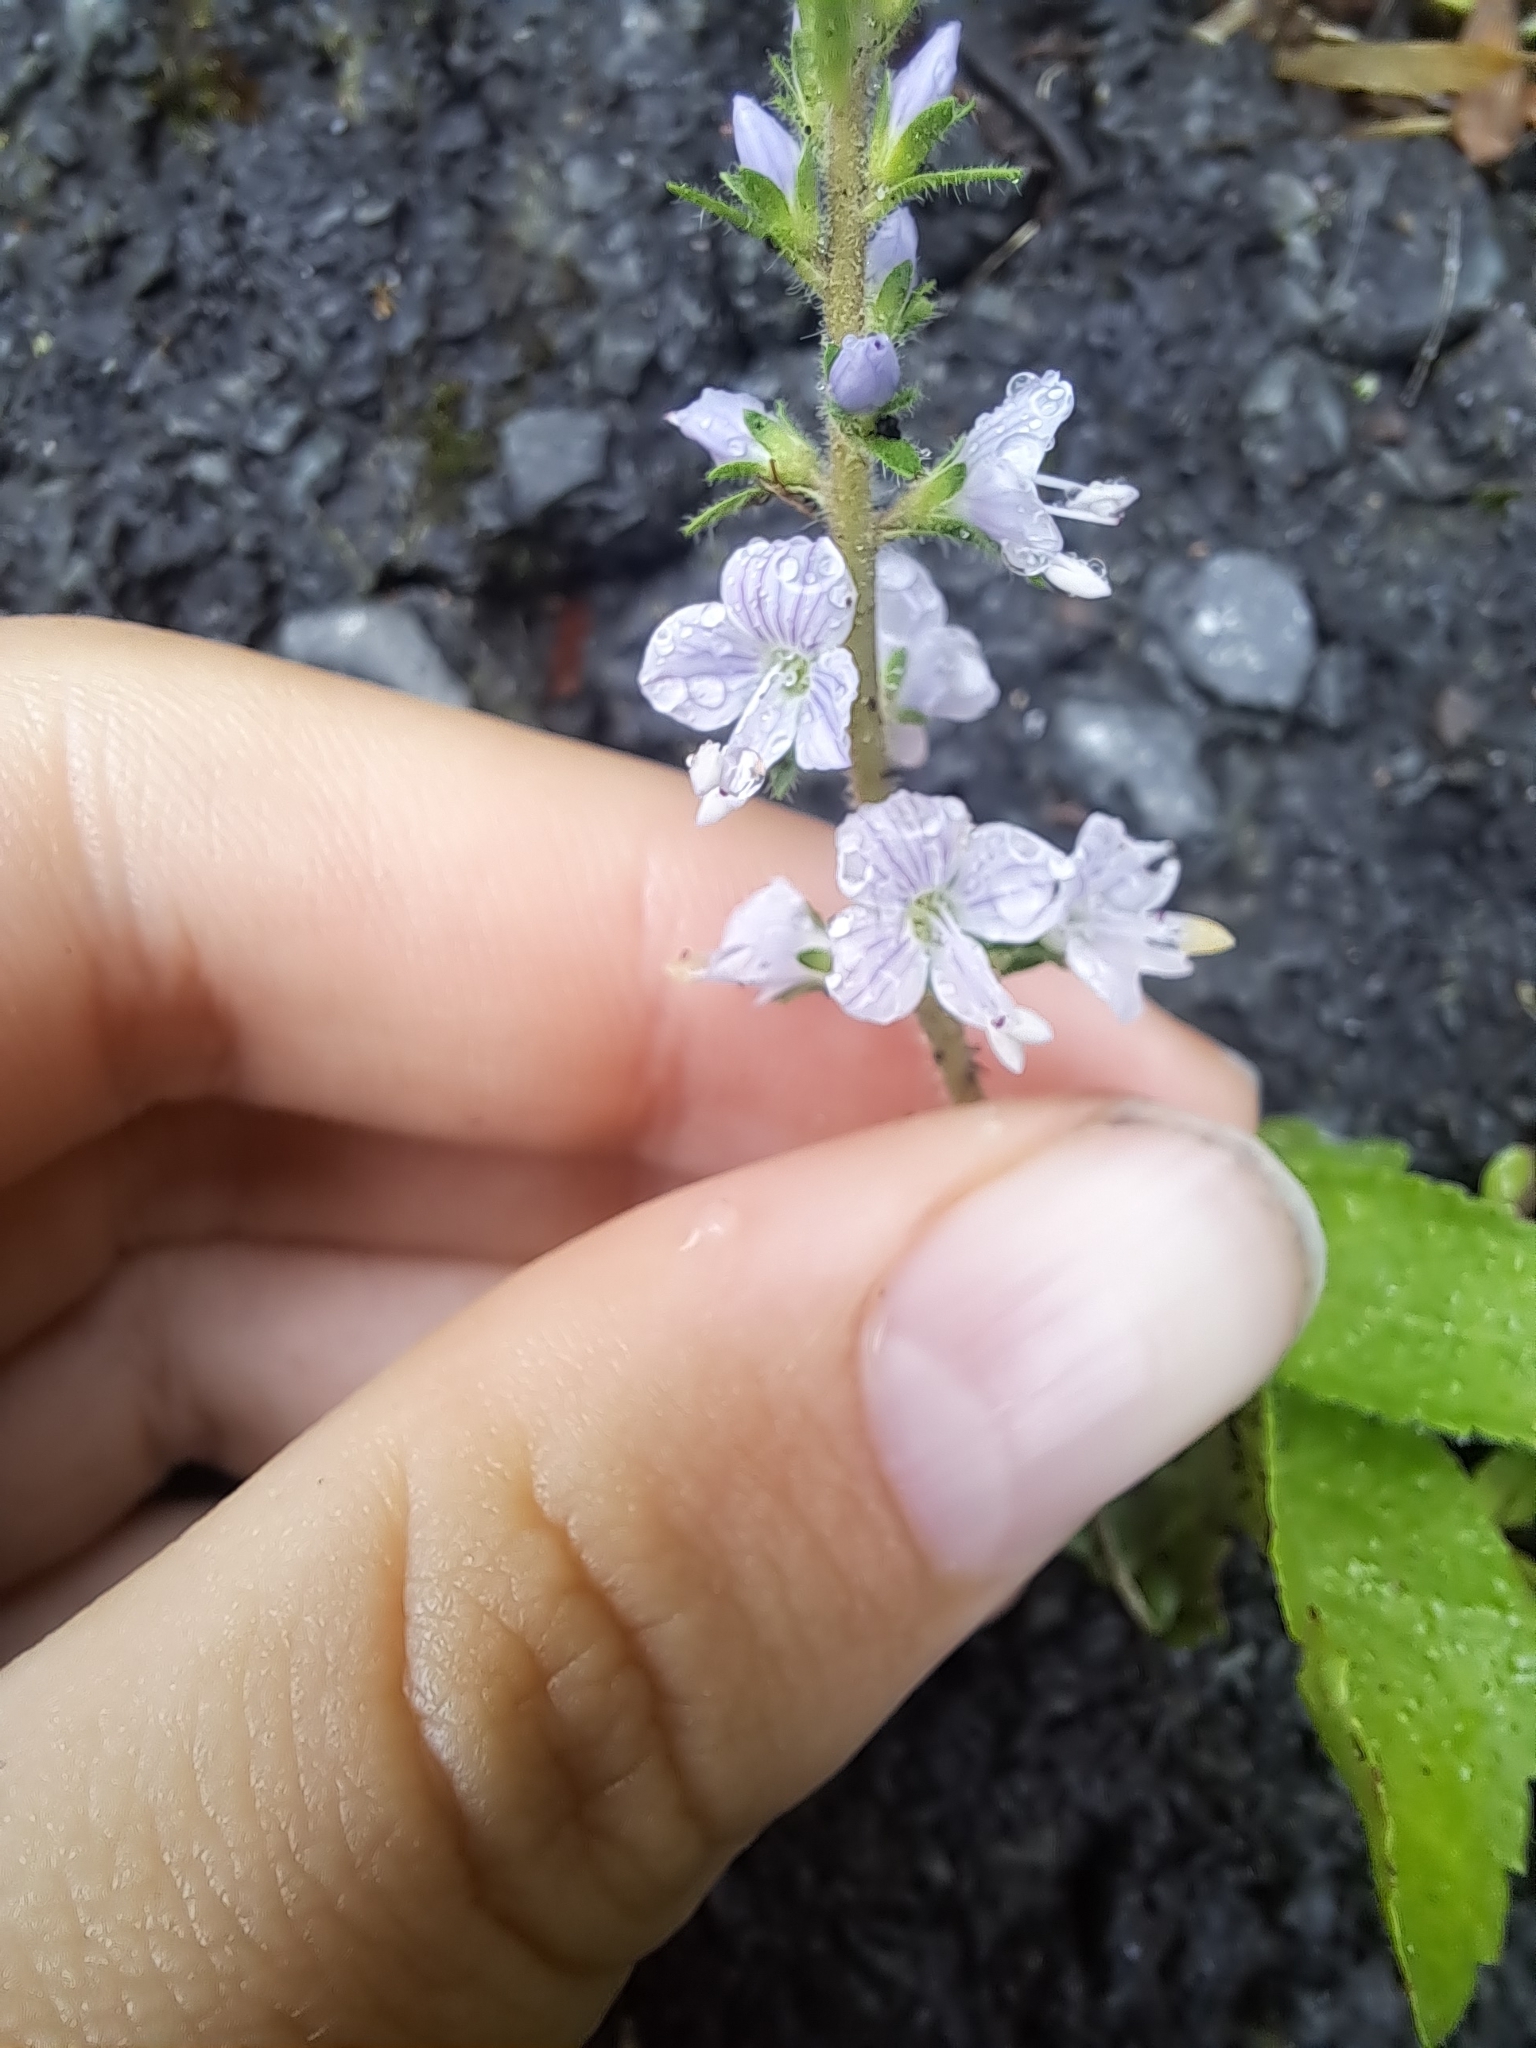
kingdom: Plantae
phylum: Tracheophyta
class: Magnoliopsida
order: Lamiales
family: Plantaginaceae
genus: Veronica
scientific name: Veronica officinalis
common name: Common speedwell
